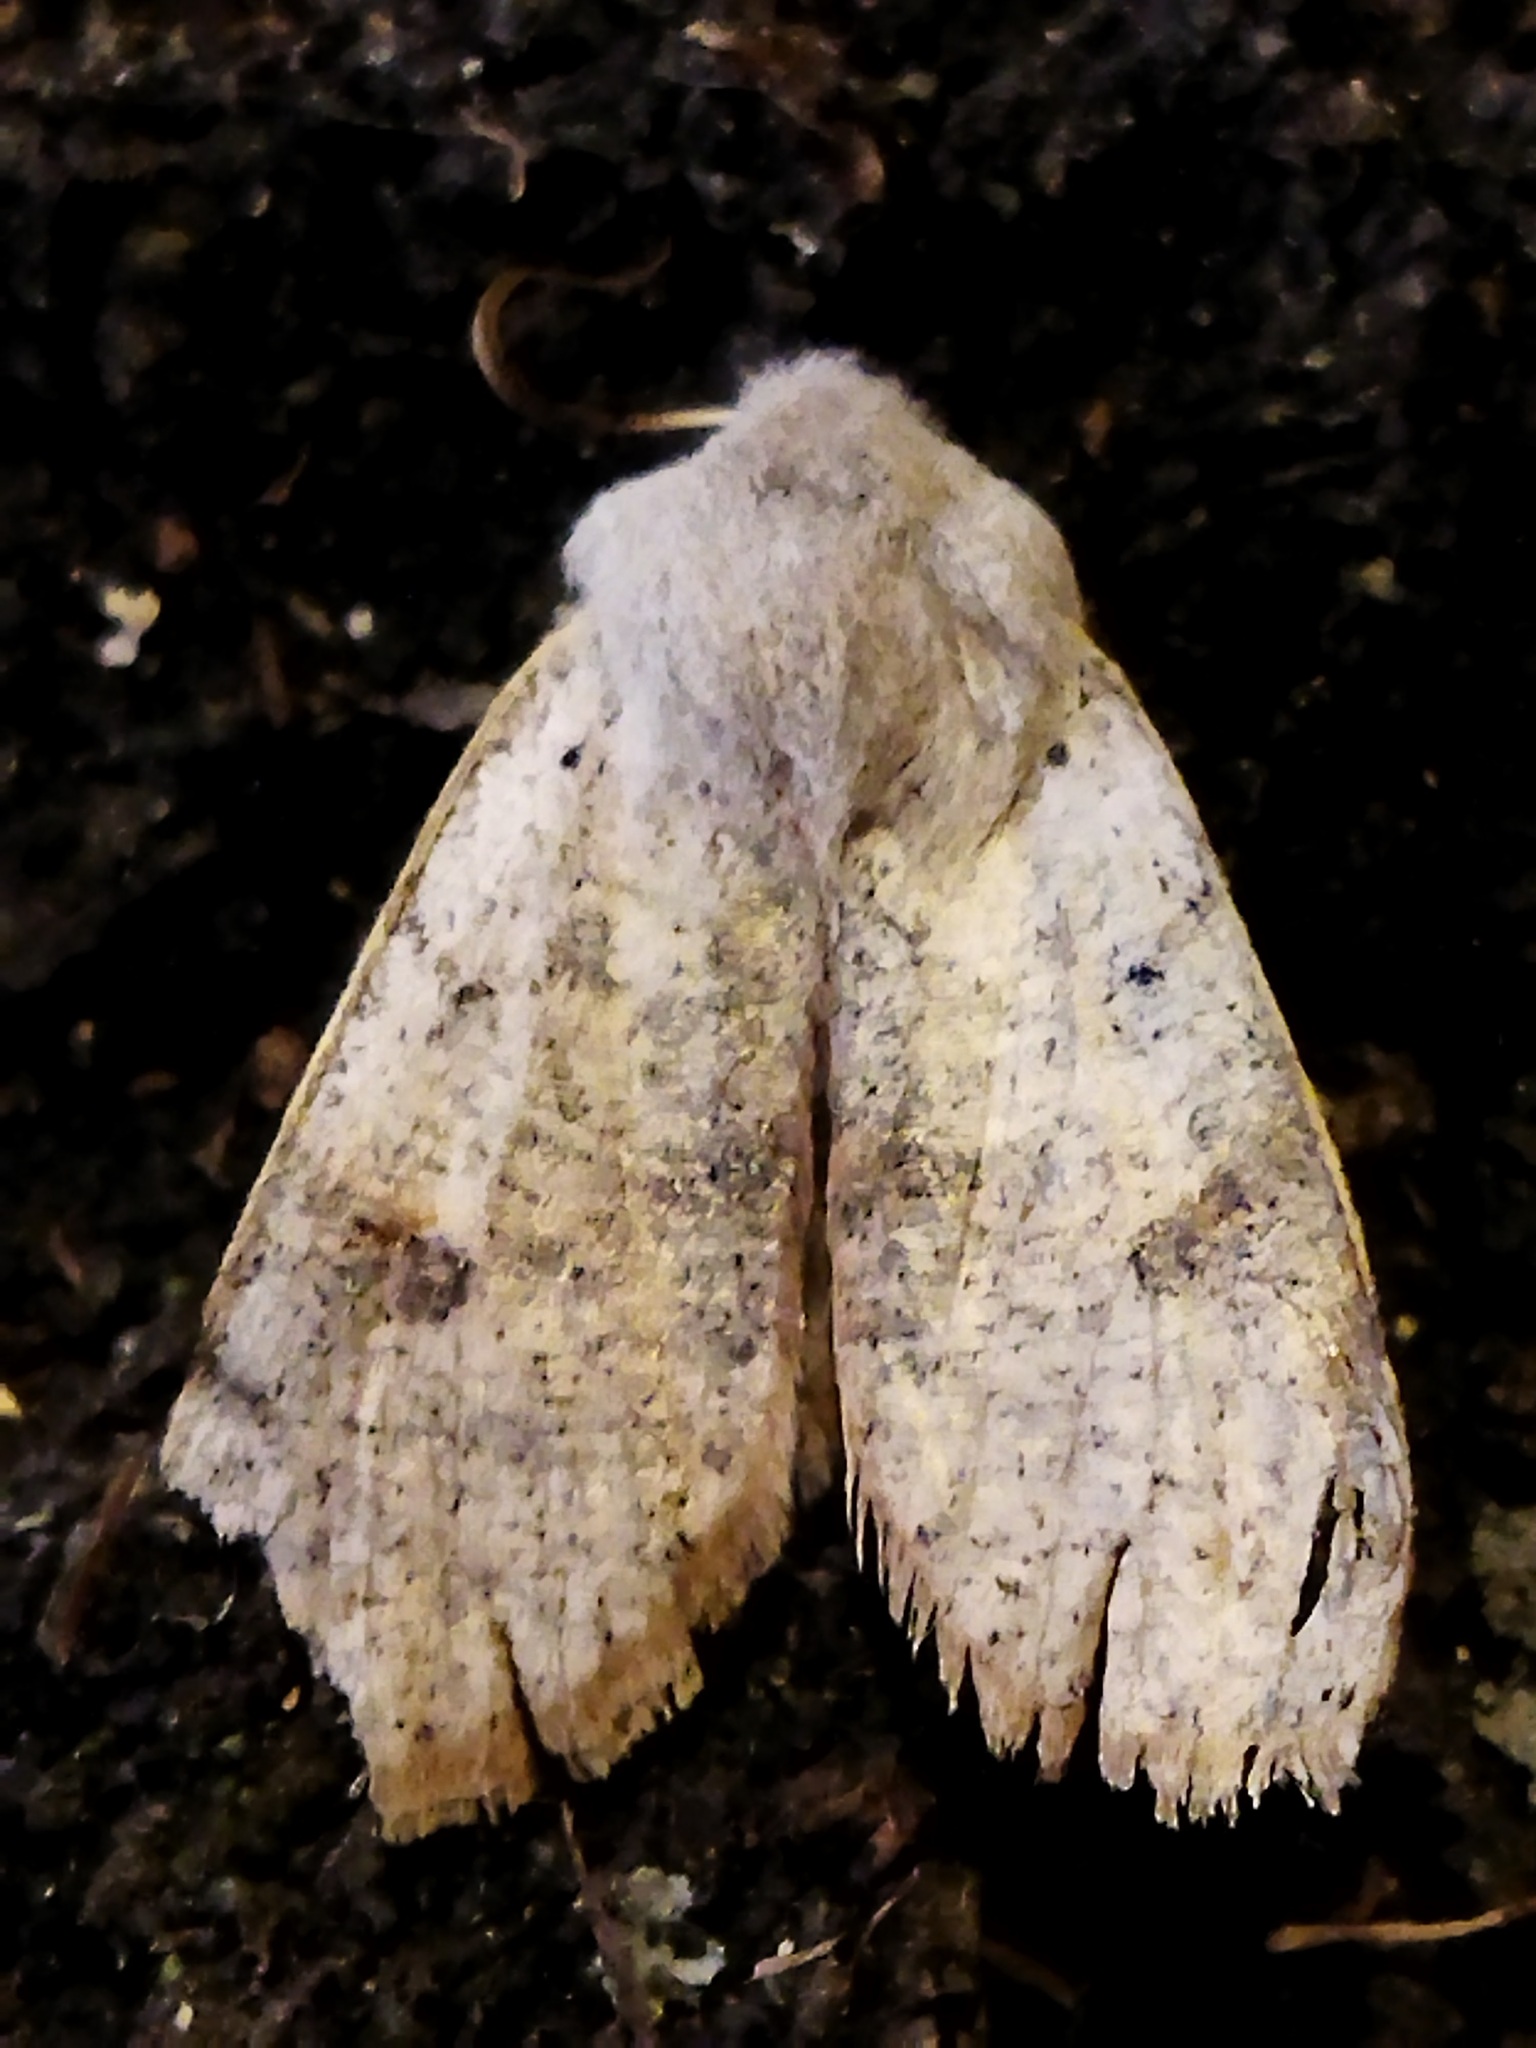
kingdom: Animalia
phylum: Arthropoda
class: Insecta
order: Lepidoptera
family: Noctuidae
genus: Perigrapha
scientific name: Perigrapha rorida
